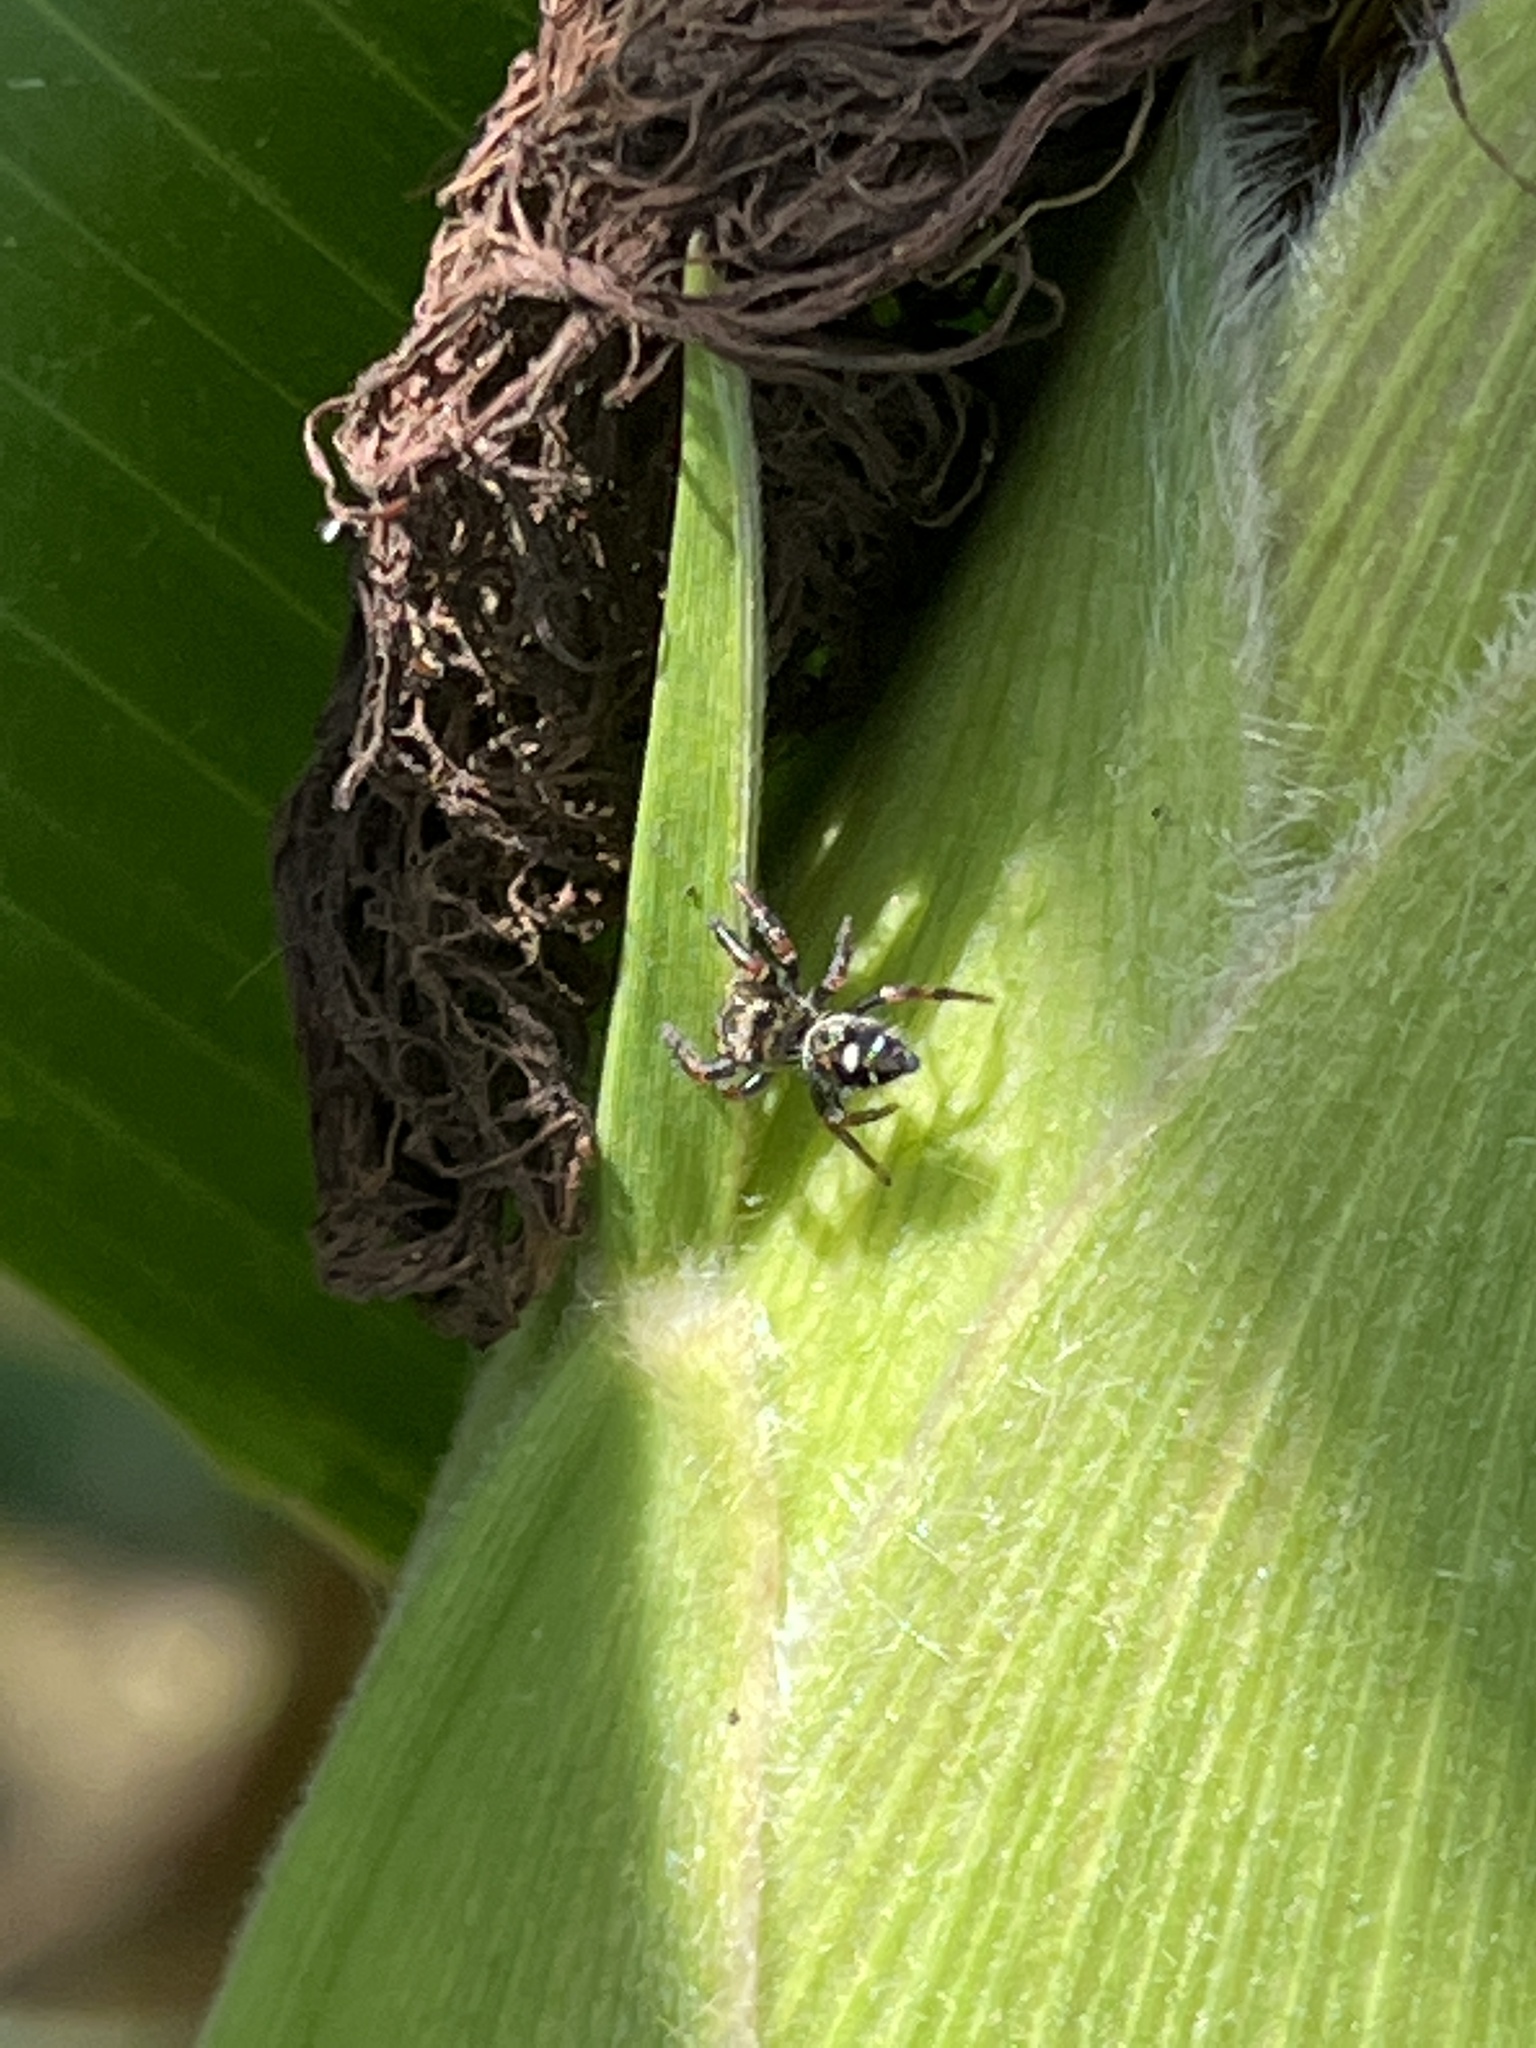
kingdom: Animalia
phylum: Arthropoda
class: Arachnida
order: Araneae
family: Salticidae
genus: Phidippus
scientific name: Phidippus audax
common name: Bold jumper
